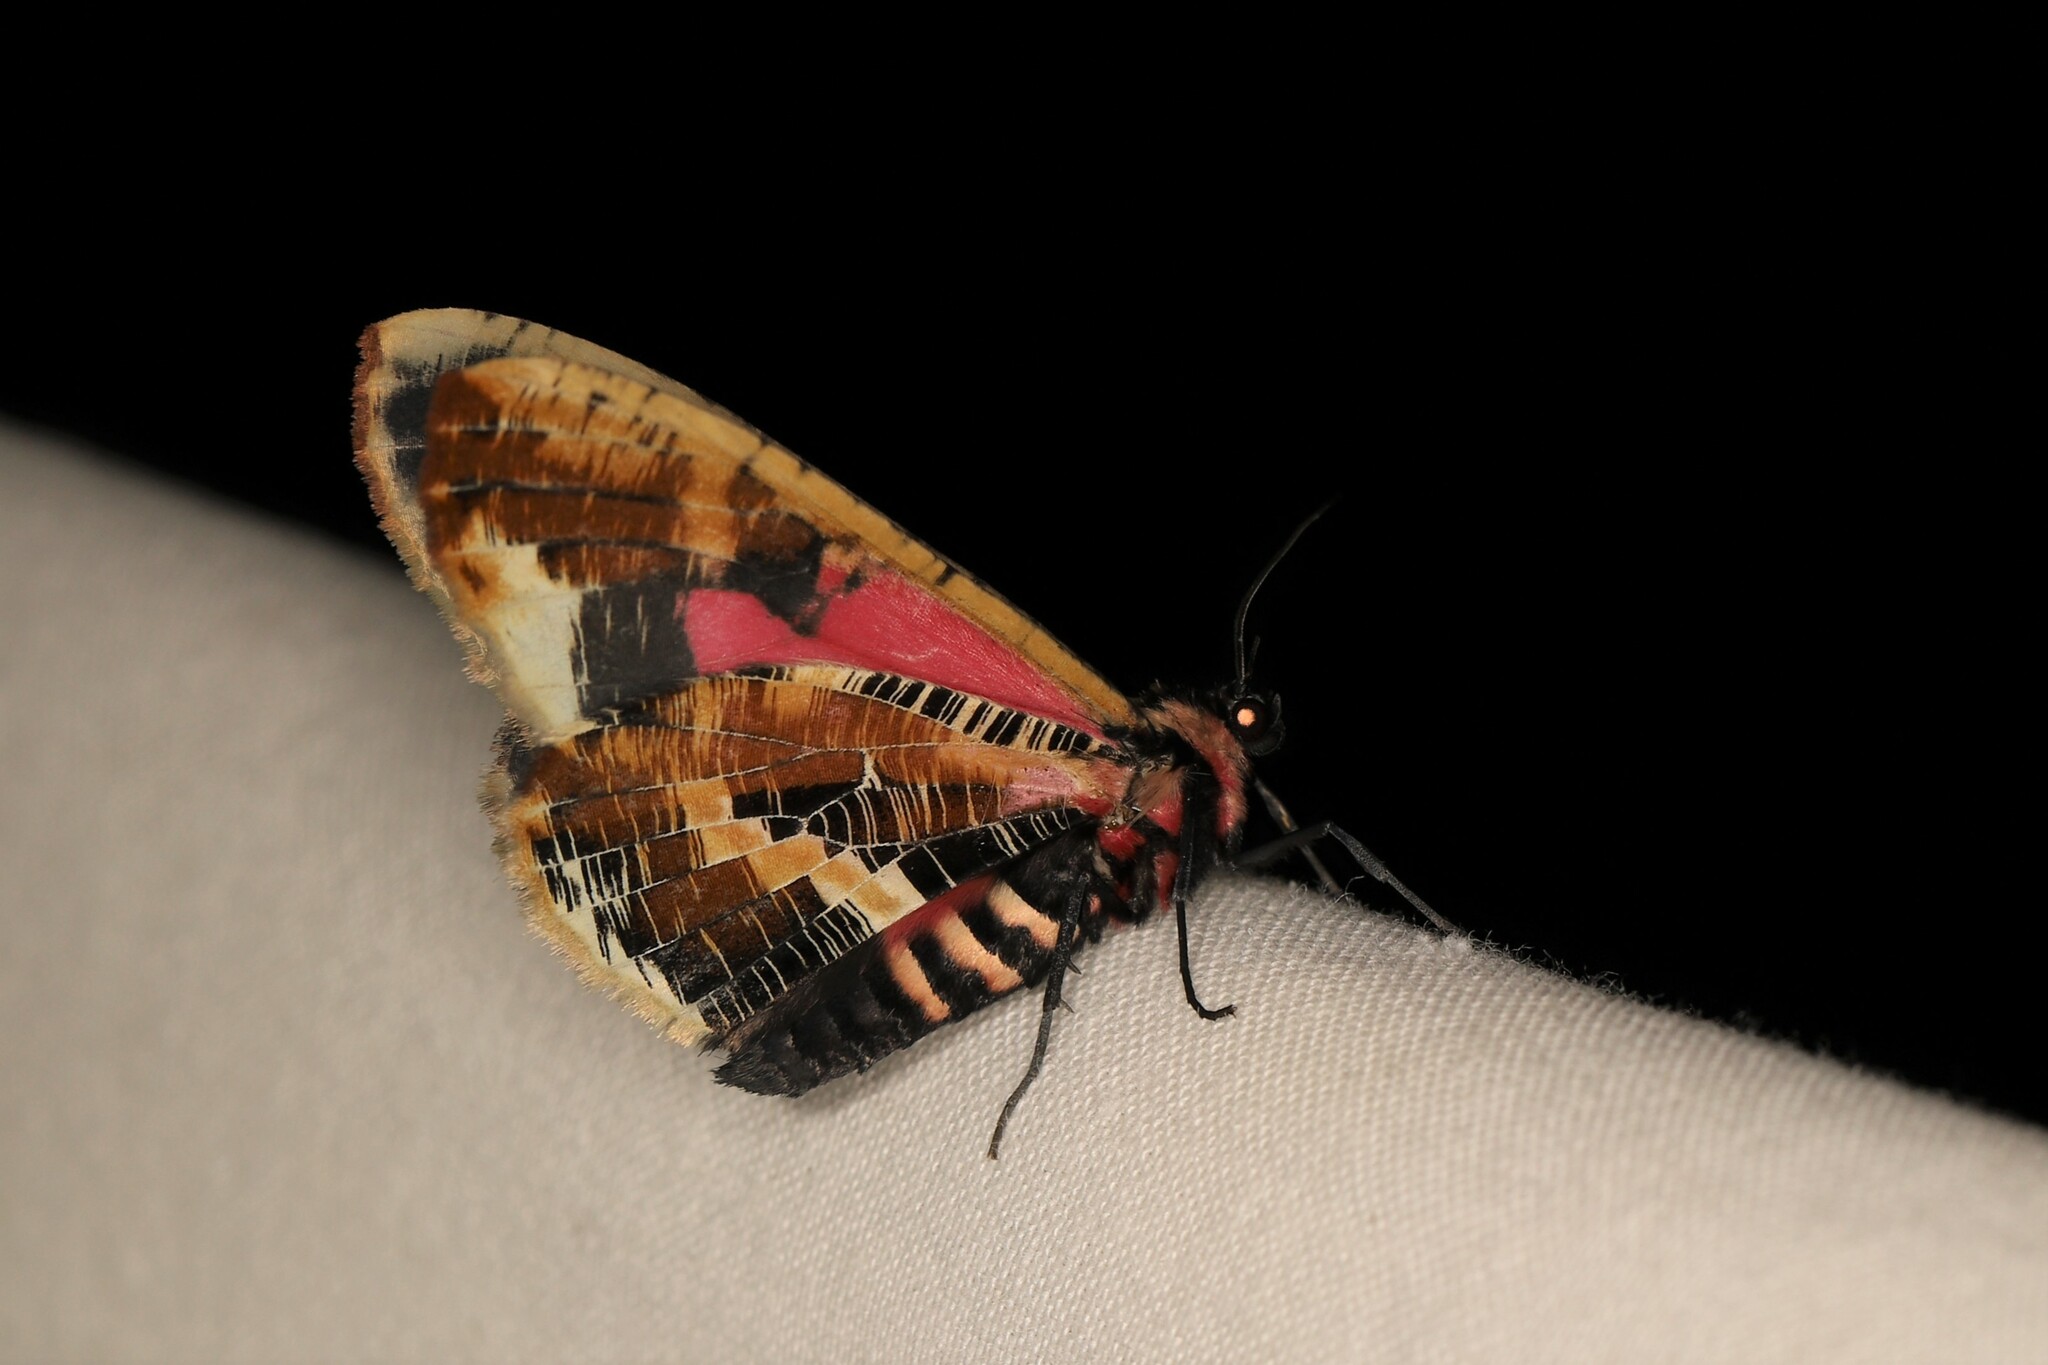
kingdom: Animalia
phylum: Arthropoda
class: Insecta
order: Lepidoptera
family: Geometridae
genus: Callipia
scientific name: Callipia milleri
